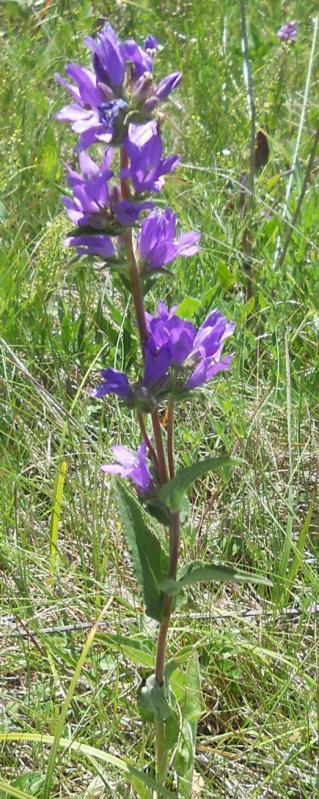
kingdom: Plantae
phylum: Tracheophyta
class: Magnoliopsida
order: Asterales
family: Campanulaceae
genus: Campanula
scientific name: Campanula glomerata
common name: Clustered bellflower
